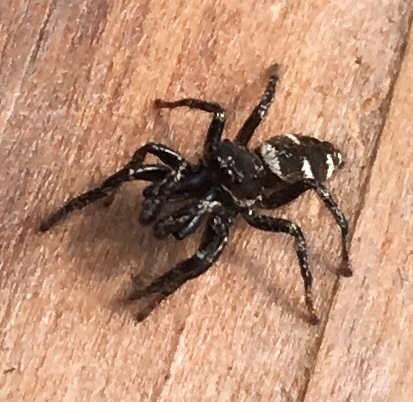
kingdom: Animalia
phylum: Arthropoda
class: Arachnida
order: Araneae
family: Salticidae
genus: Salticus
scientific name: Salticus scenicus
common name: Zebra jumper
